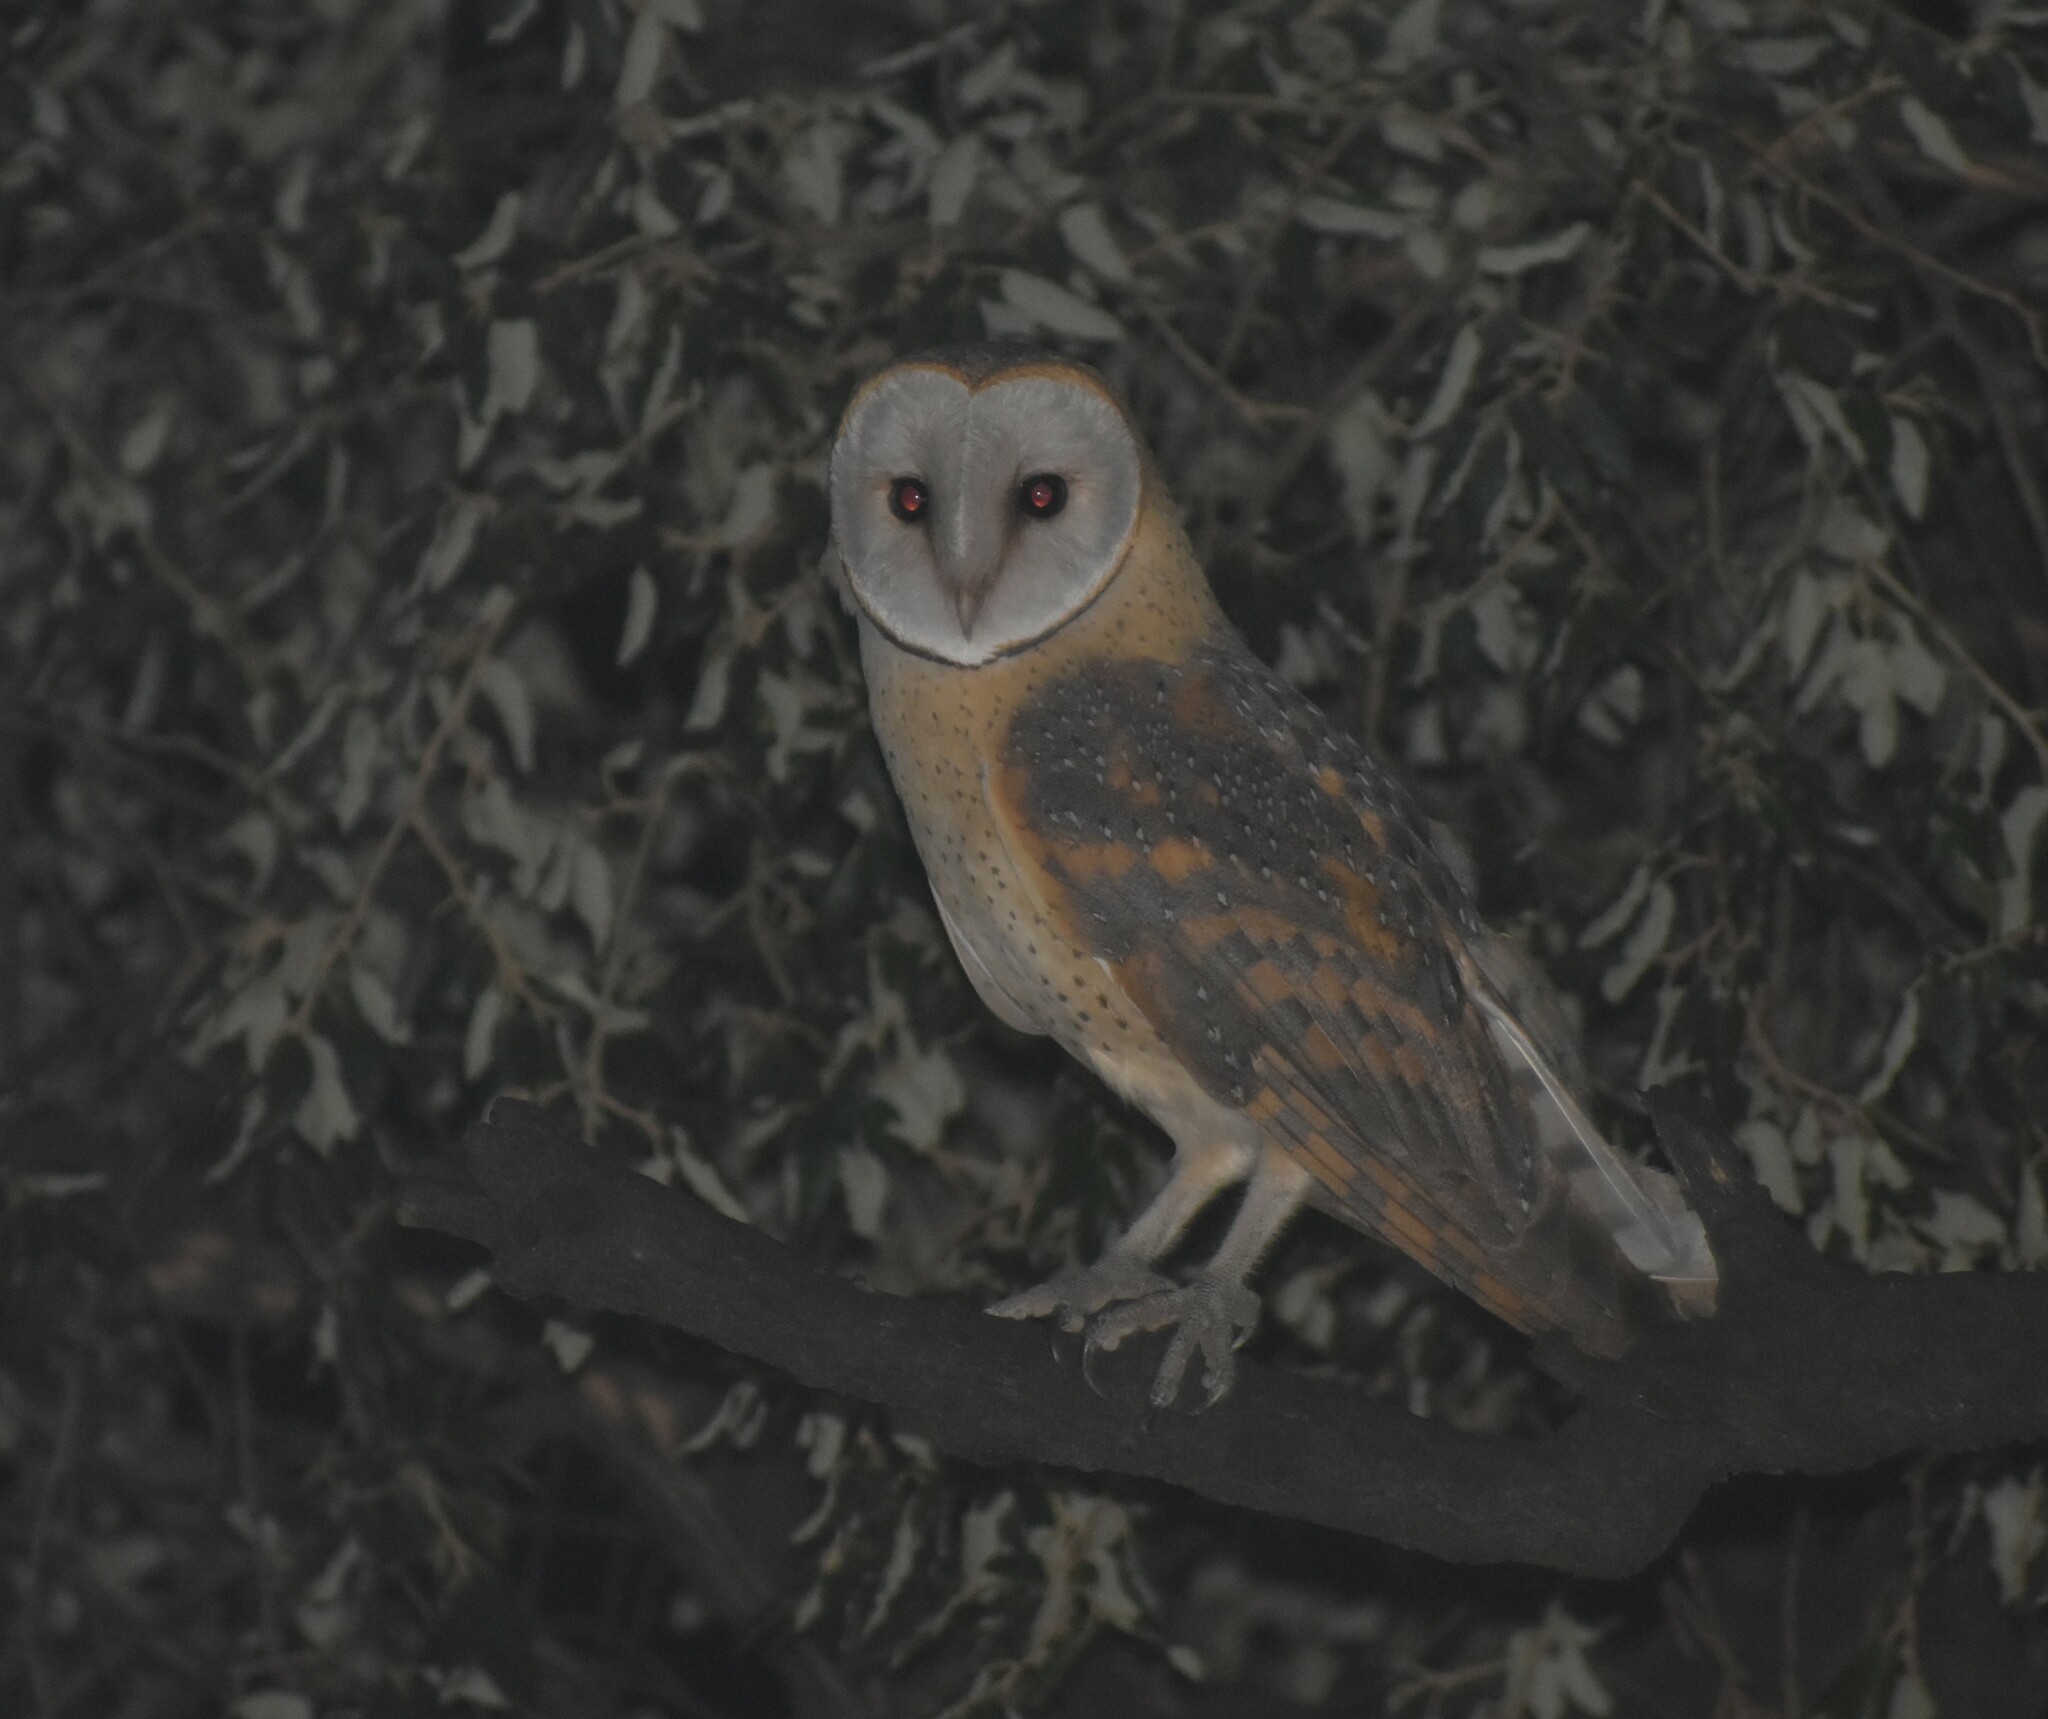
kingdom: Animalia
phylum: Chordata
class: Aves
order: Strigiformes
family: Tytonidae
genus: Tyto
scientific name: Tyto alba
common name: Barn owl
